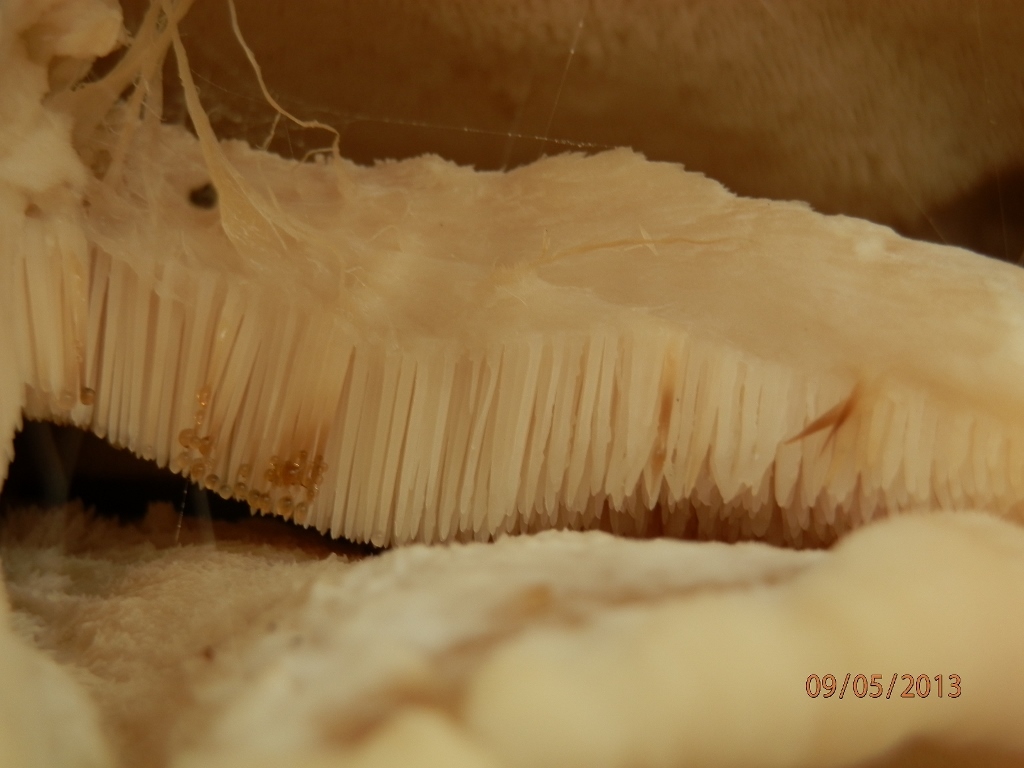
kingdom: Fungi
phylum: Basidiomycota
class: Agaricomycetes
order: Polyporales
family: Meruliaceae
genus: Climacodon
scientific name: Climacodon septentrionalis
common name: Northern tooth
